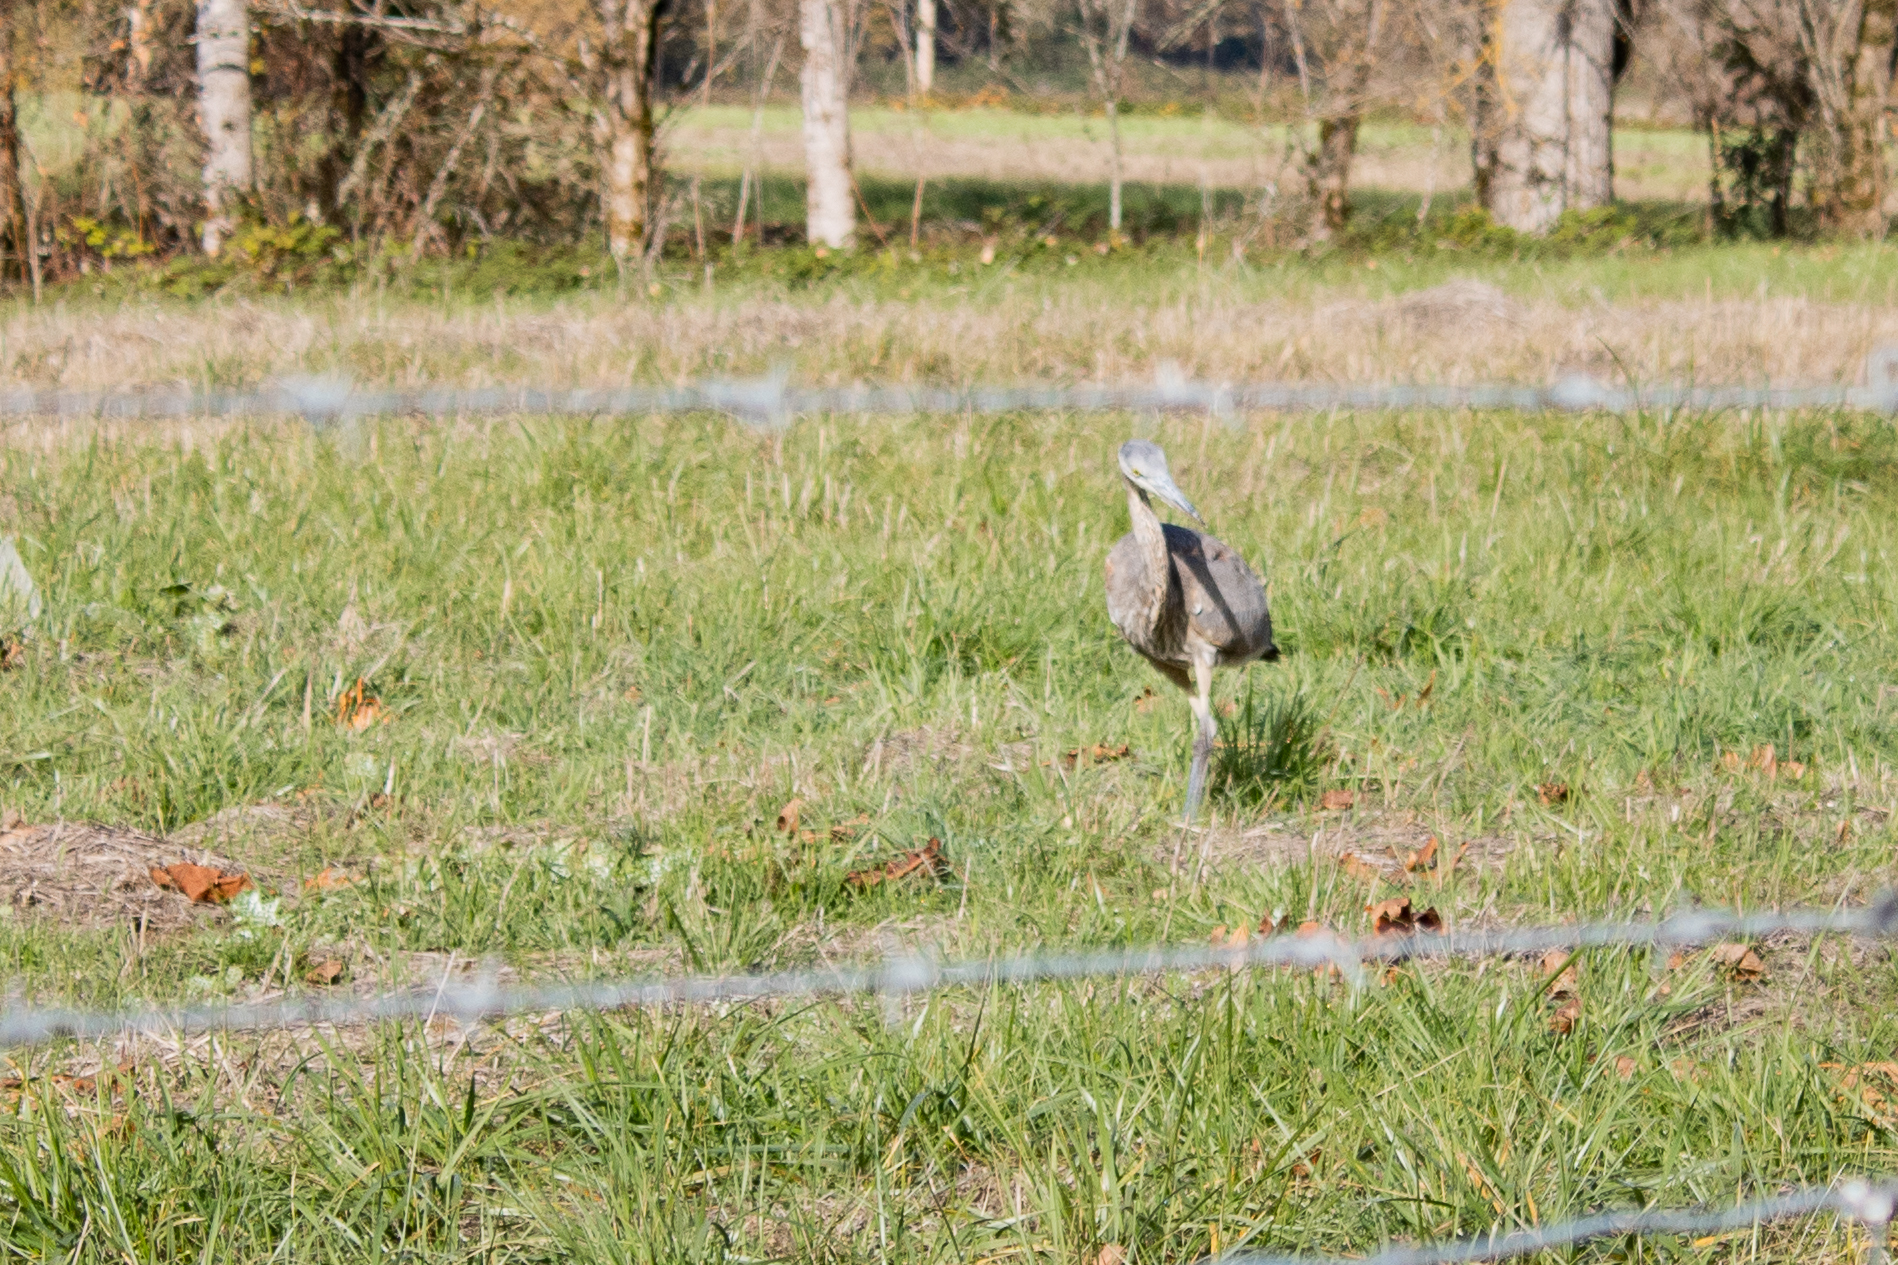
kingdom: Animalia
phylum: Chordata
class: Aves
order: Pelecaniformes
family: Ardeidae
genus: Ardea
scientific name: Ardea herodias
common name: Great blue heron
